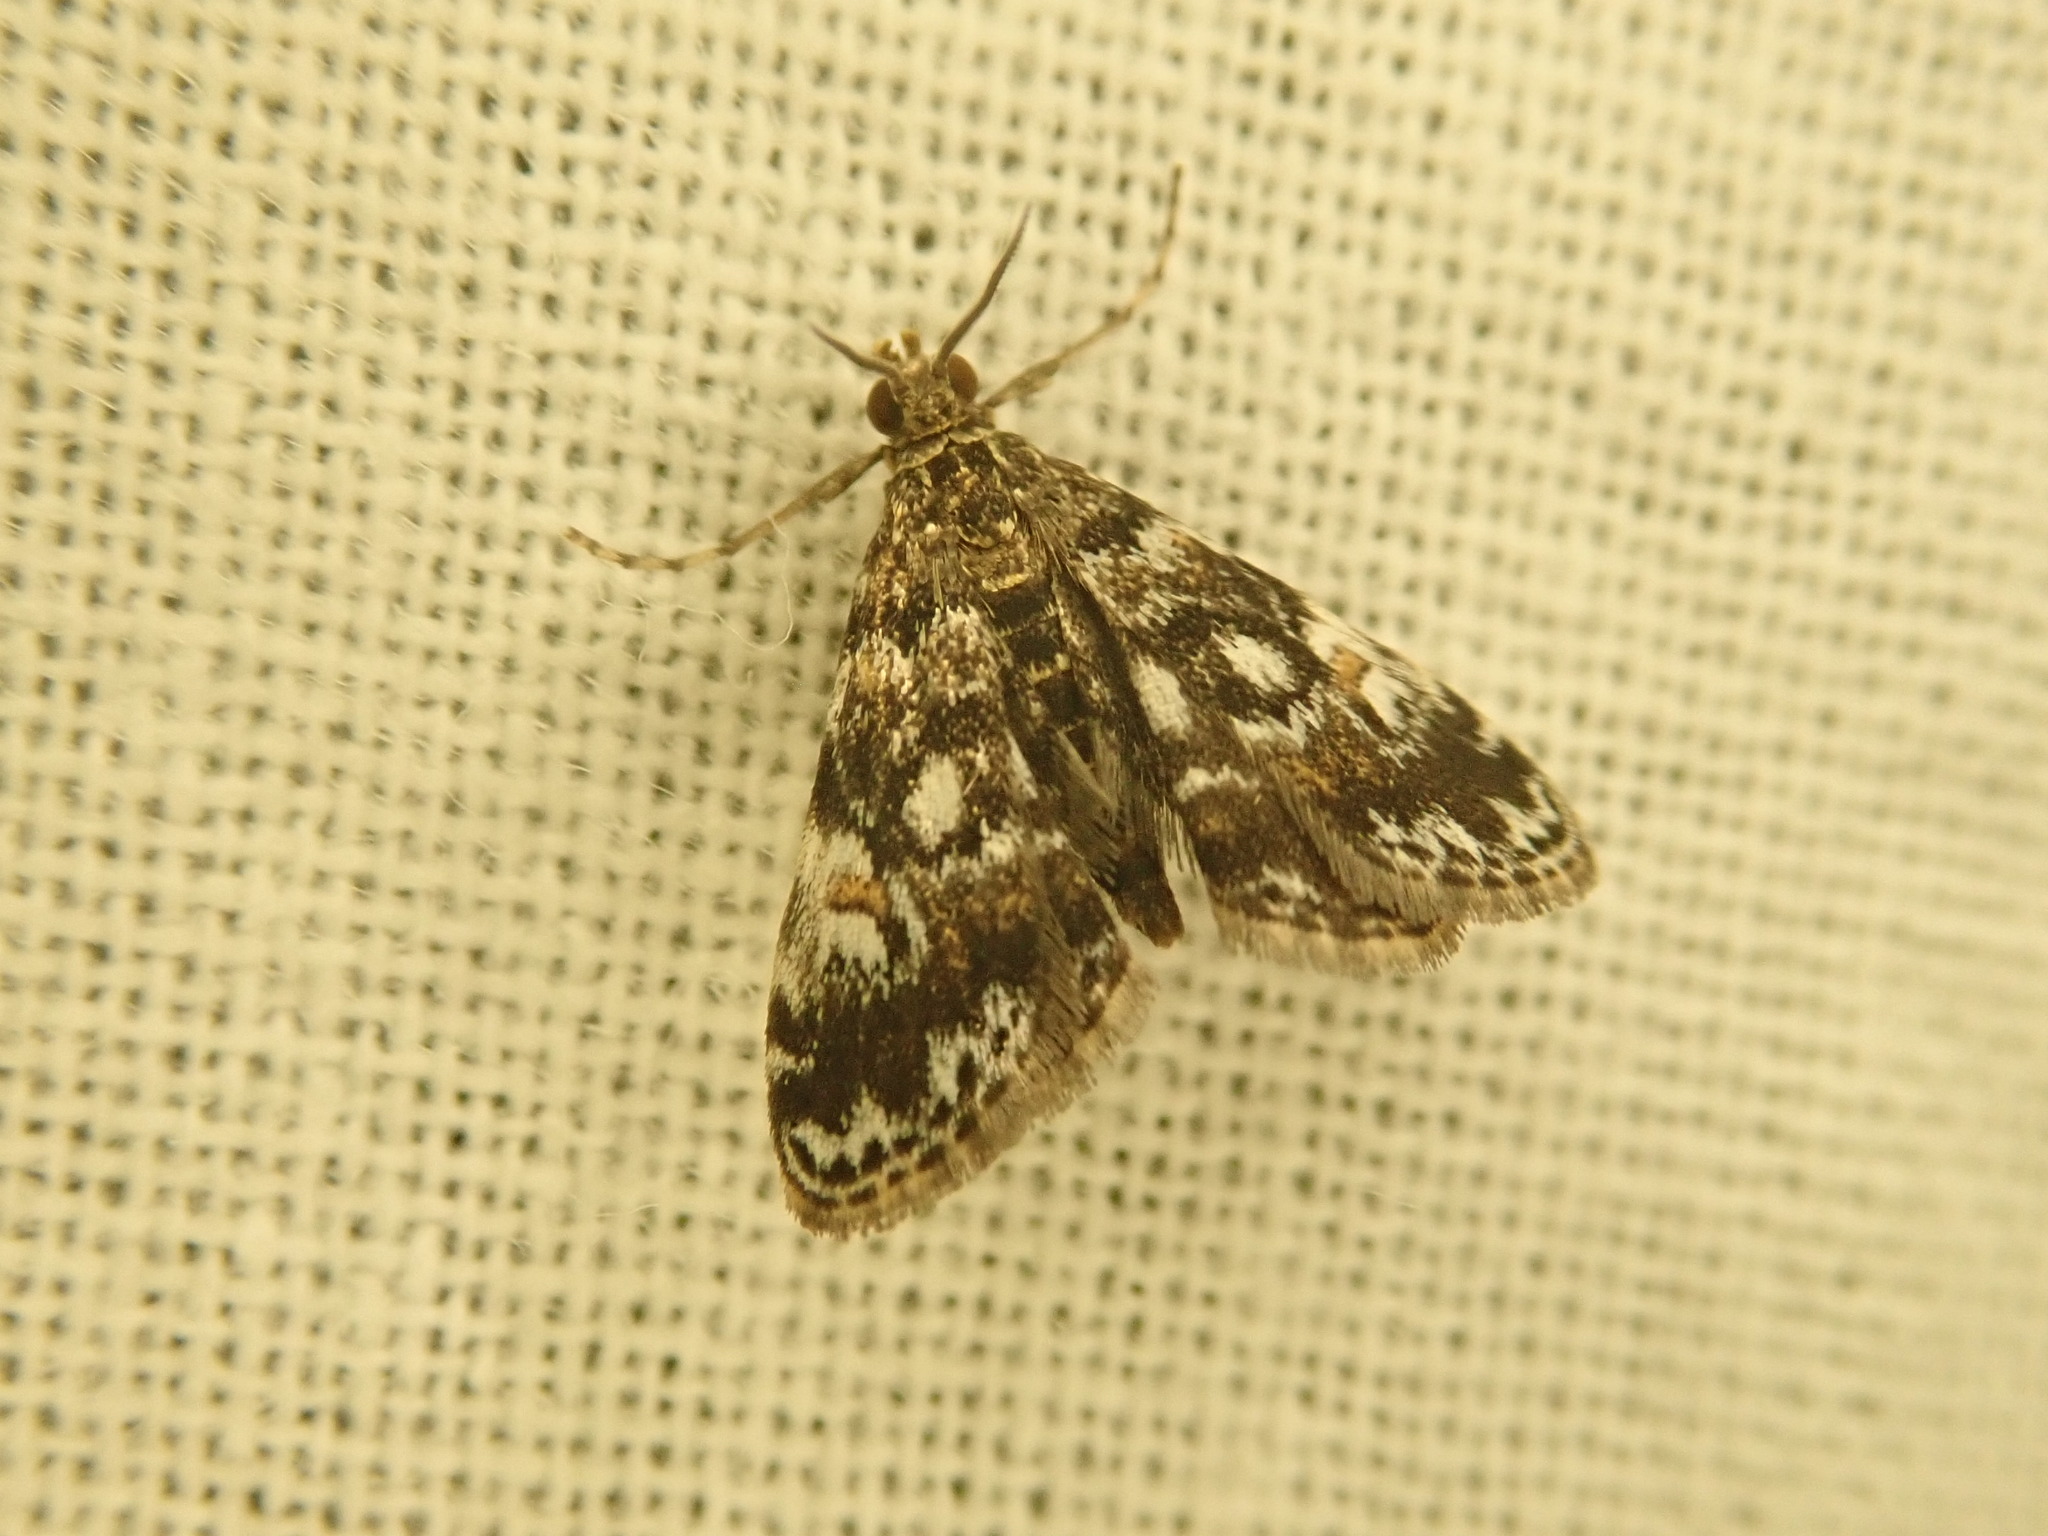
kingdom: Animalia
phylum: Arthropoda
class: Insecta
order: Lepidoptera
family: Crambidae
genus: Elophila
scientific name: Elophila obliteralis
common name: Waterlily leafcutter moth
